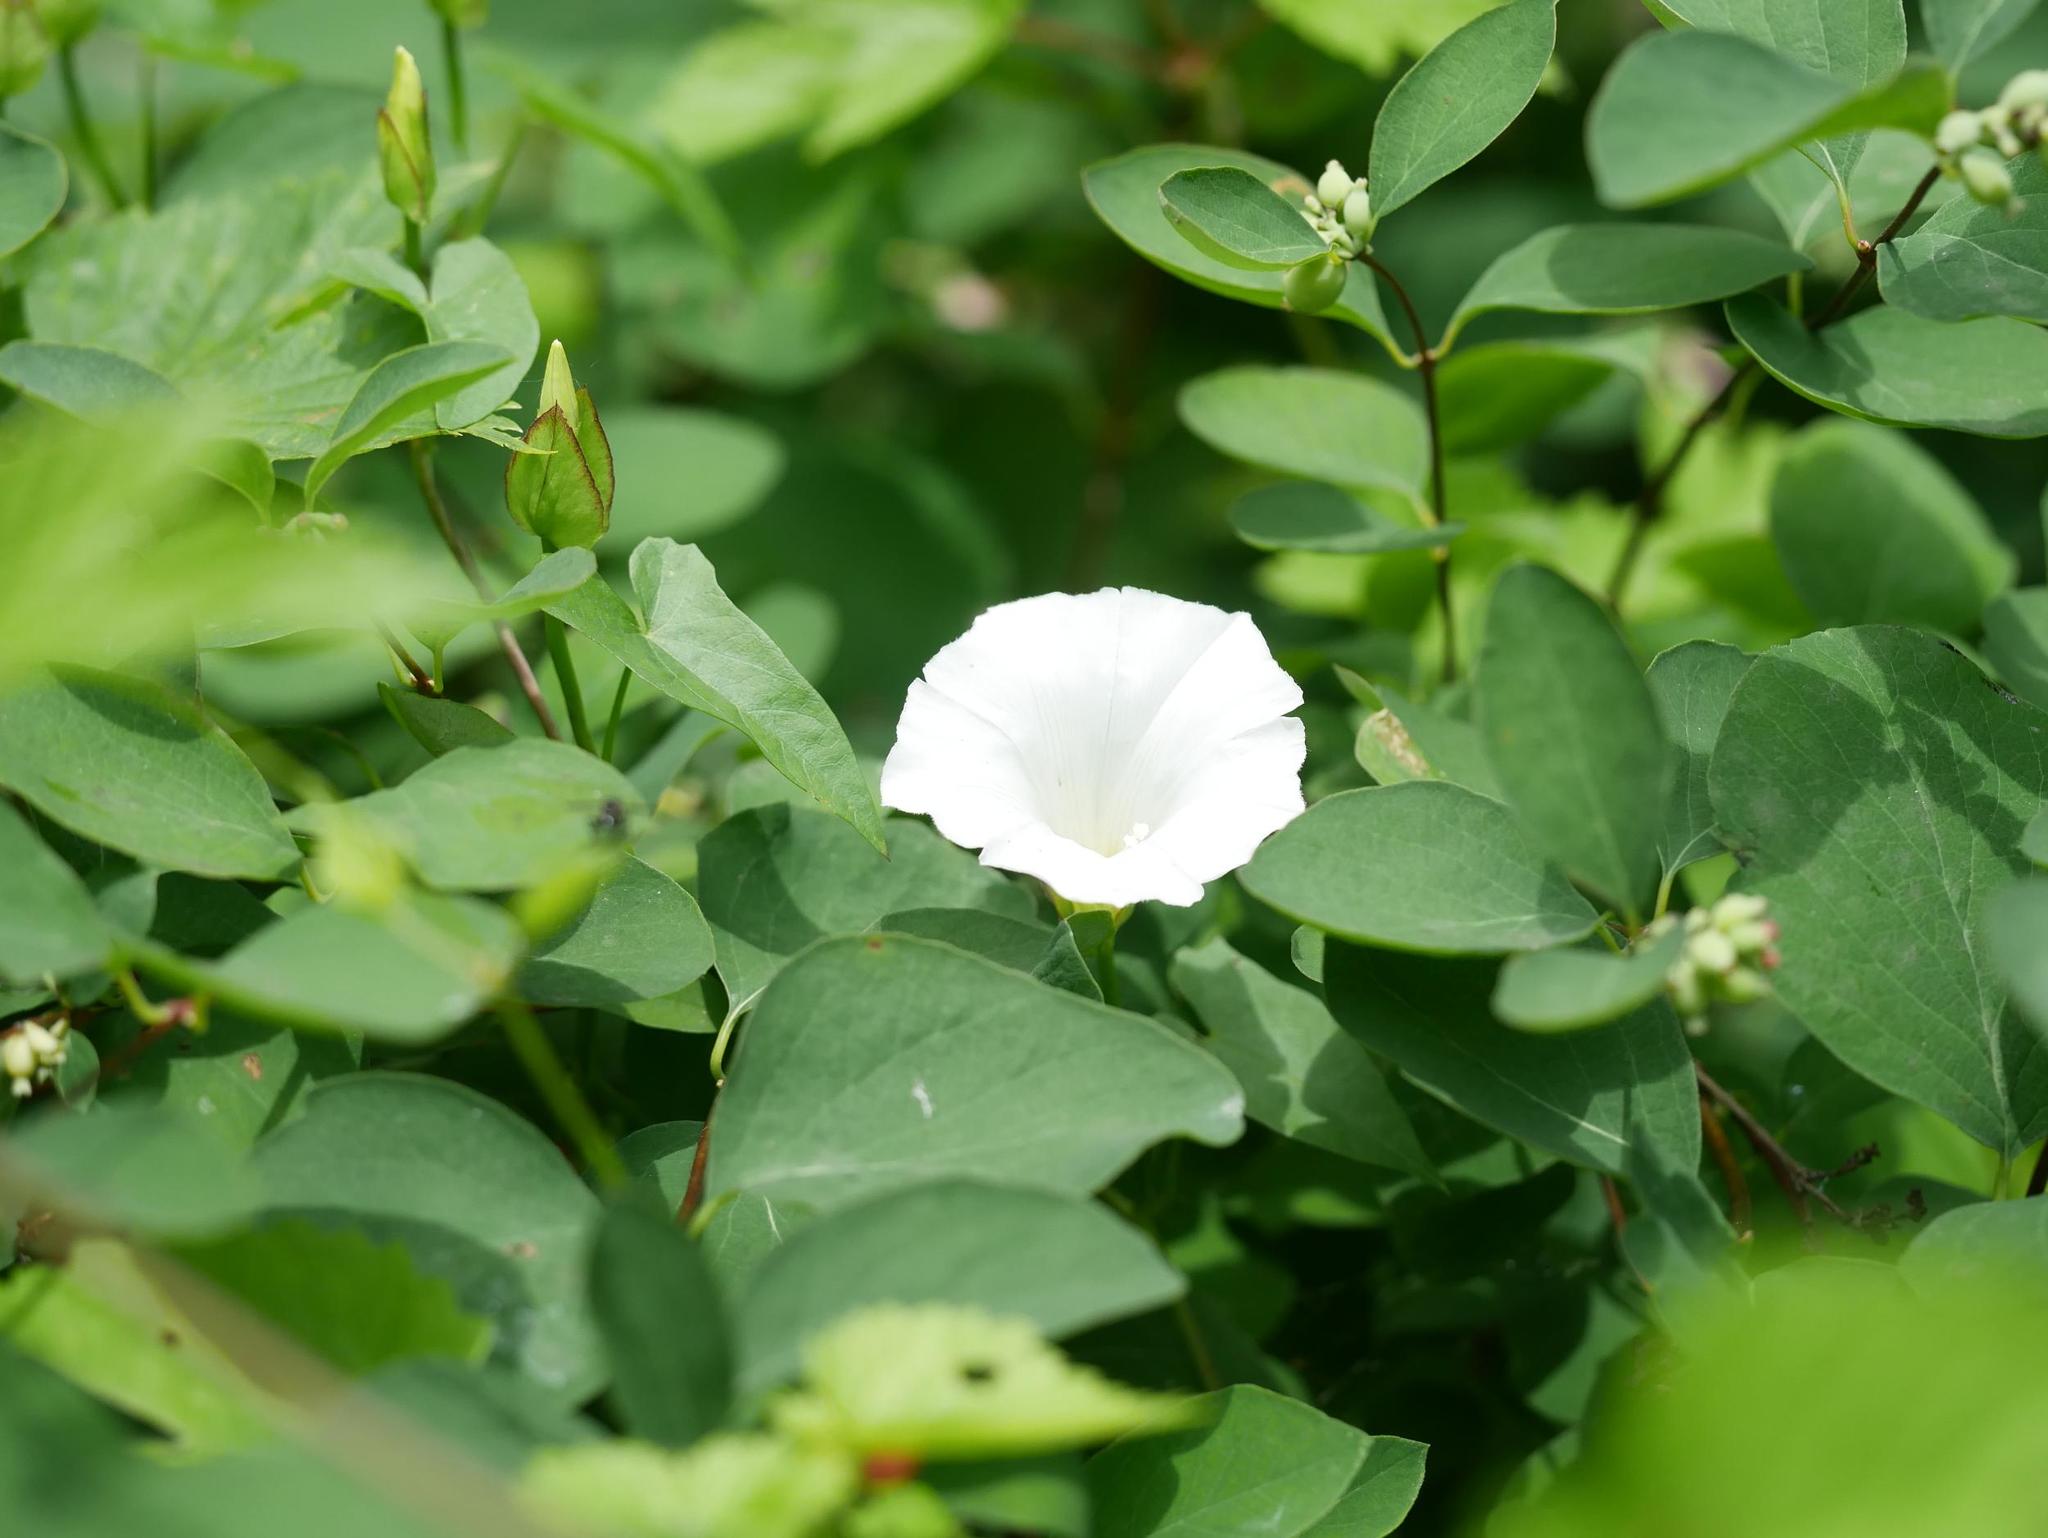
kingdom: Plantae
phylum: Tracheophyta
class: Magnoliopsida
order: Solanales
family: Convolvulaceae
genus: Calystegia
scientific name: Calystegia sepium
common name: Hedge bindweed
